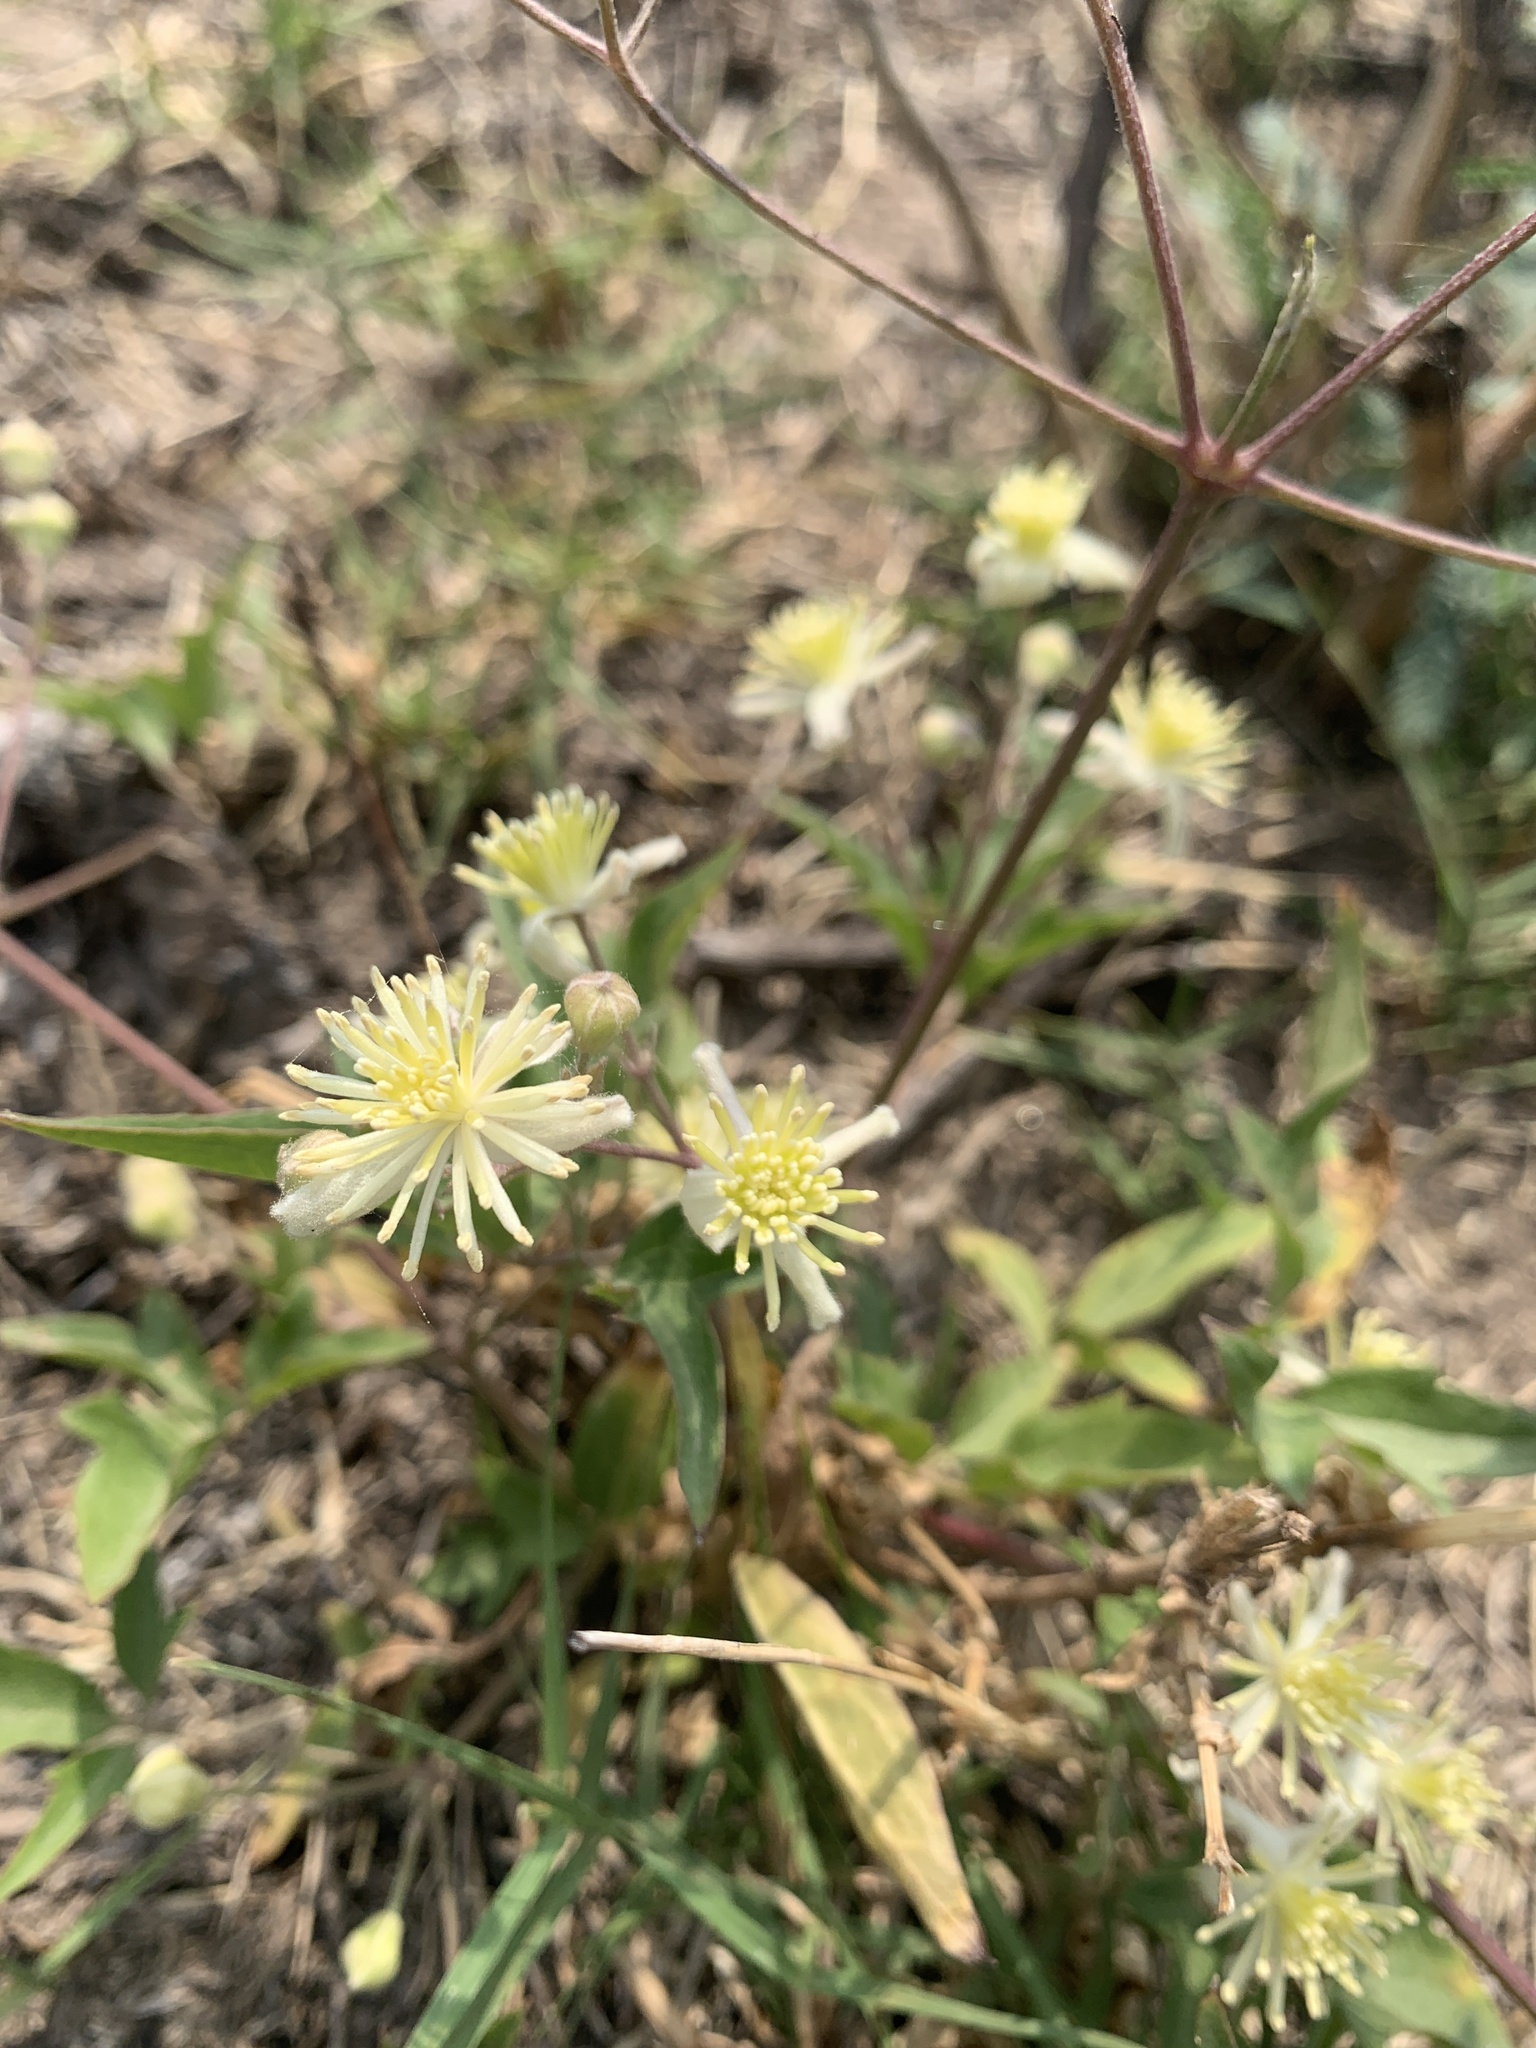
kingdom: Plantae
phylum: Tracheophyta
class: Magnoliopsida
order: Ranunculales
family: Ranunculaceae
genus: Clematis
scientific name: Clematis montevidensis
